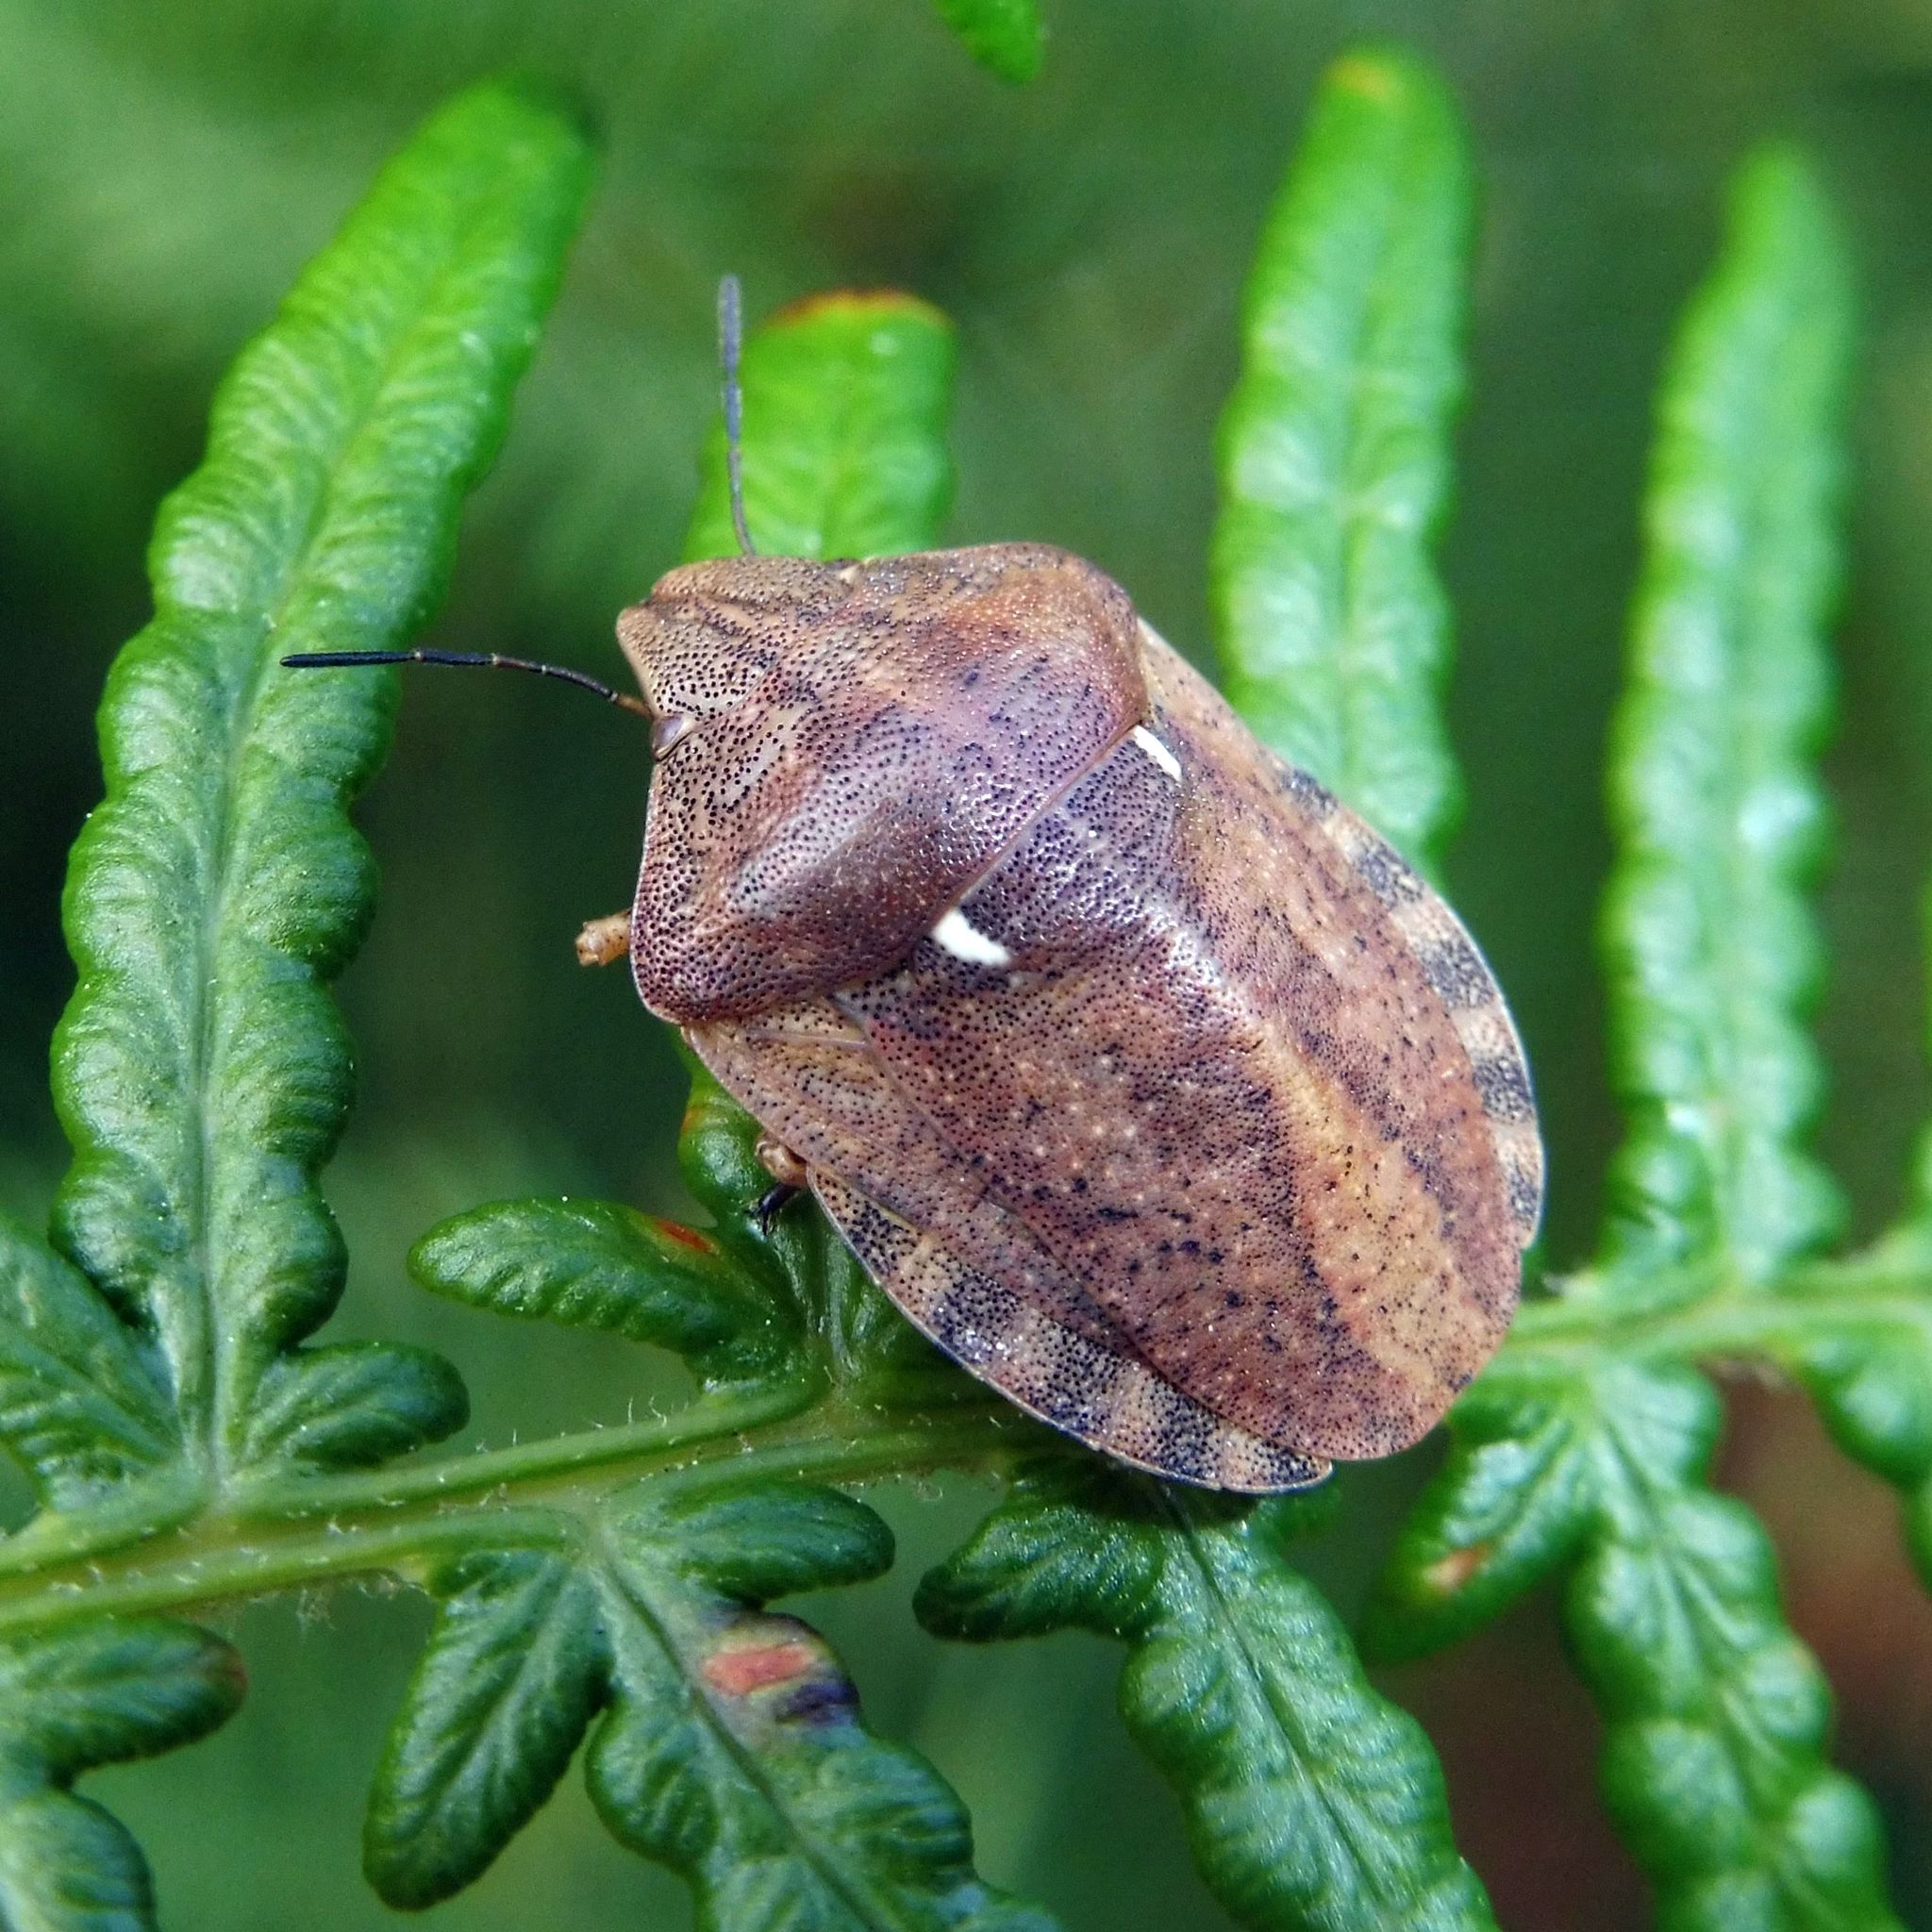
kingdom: Animalia
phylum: Arthropoda
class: Insecta
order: Hemiptera
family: Scutelleridae
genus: Eurygaster
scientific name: Eurygaster testudinaria
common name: Tortoise bug
